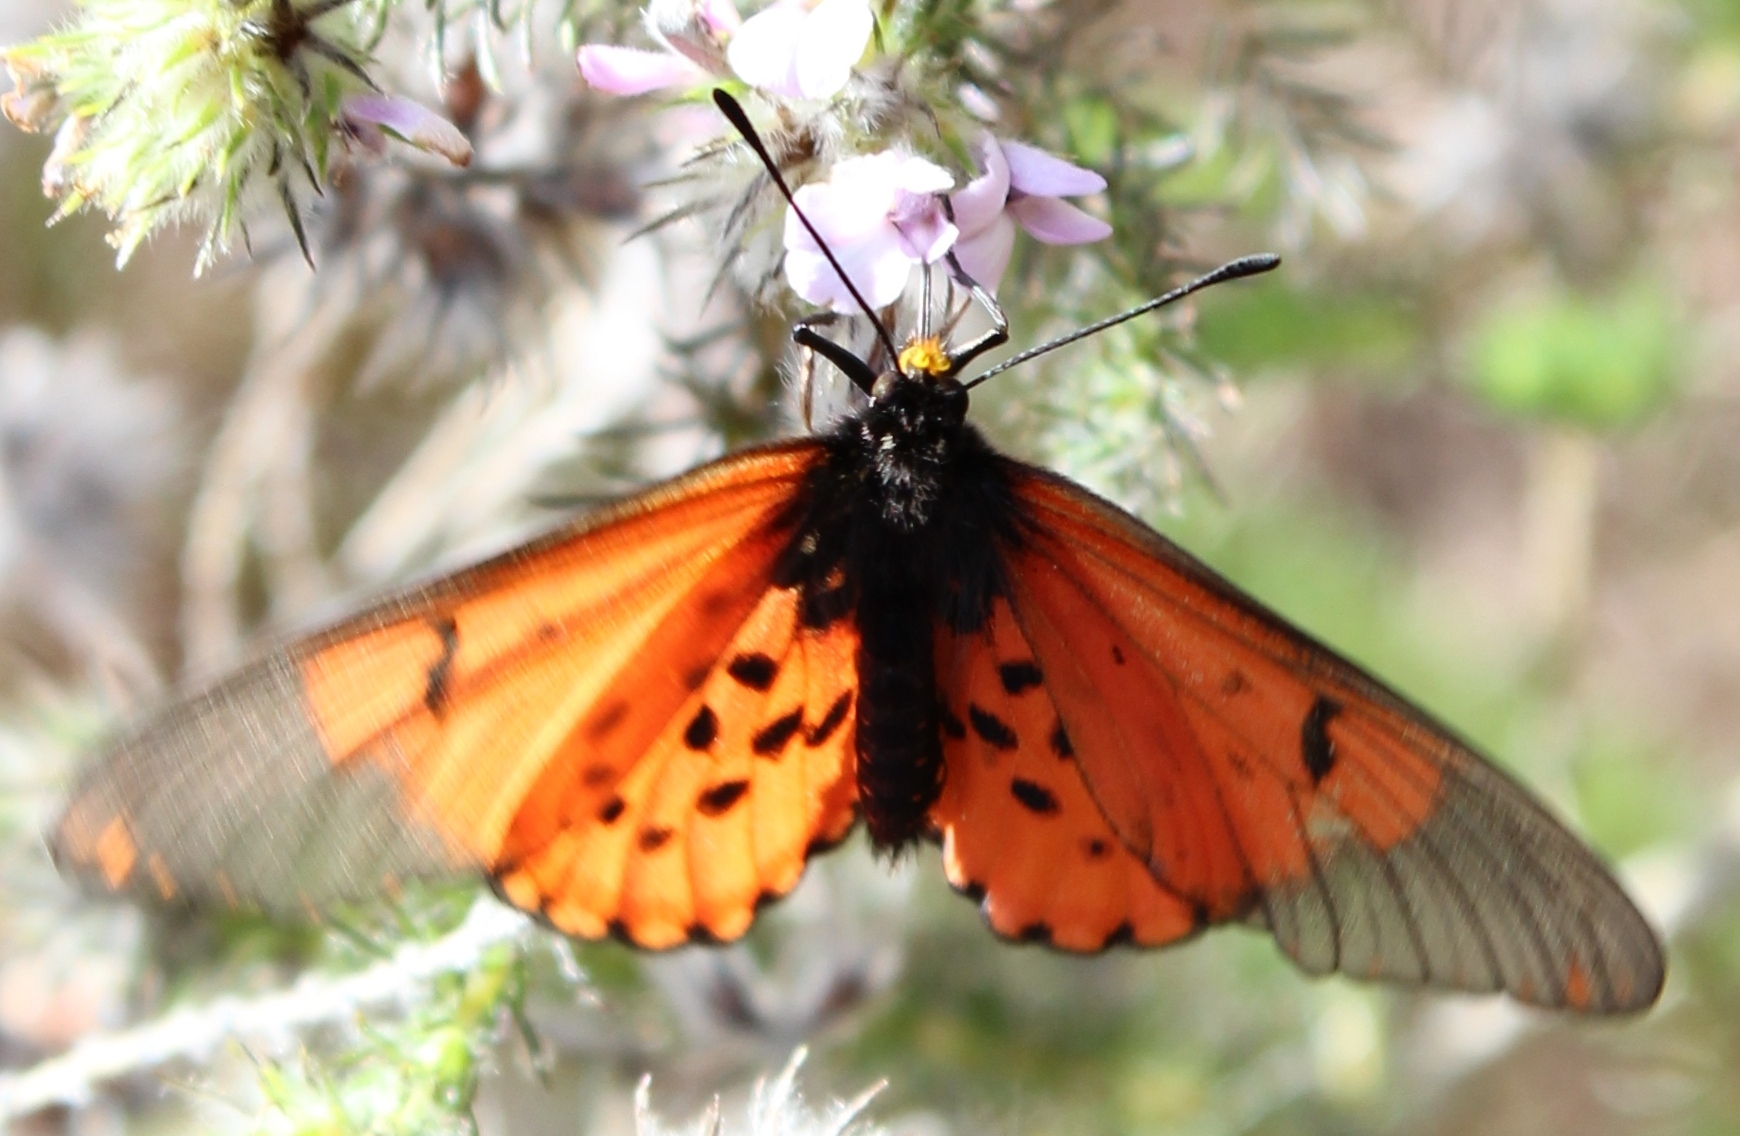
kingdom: Animalia
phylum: Arthropoda
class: Insecta
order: Lepidoptera
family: Nymphalidae
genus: Acraea
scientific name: Acraea horta
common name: Garden acraea
